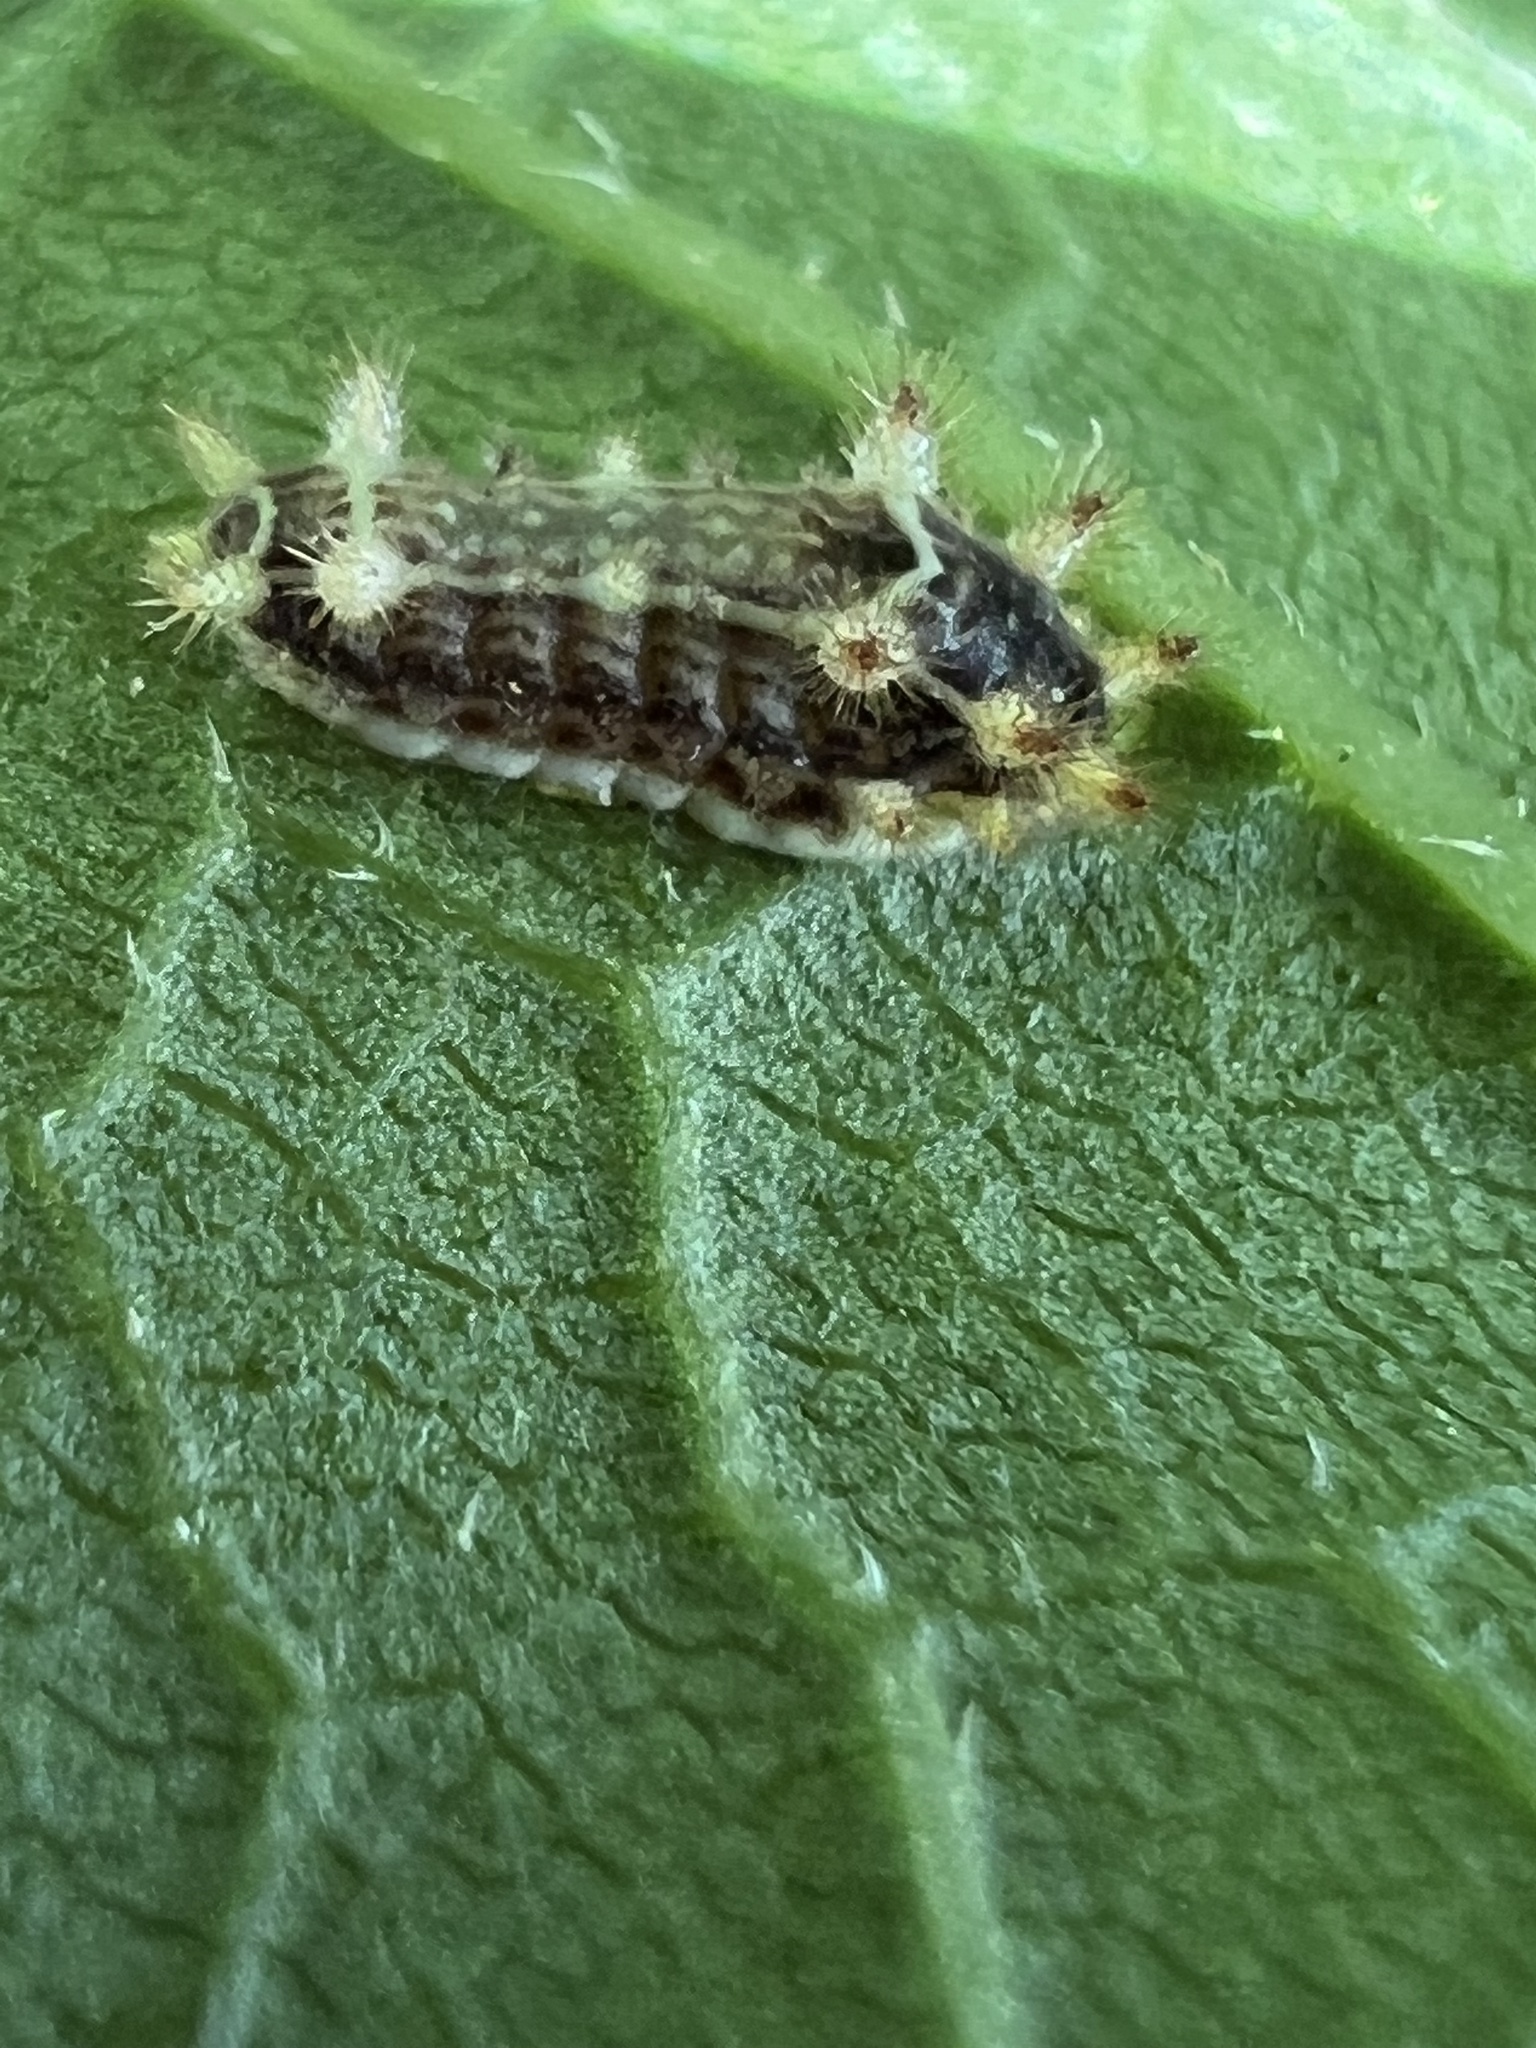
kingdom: Animalia
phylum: Arthropoda
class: Insecta
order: Lepidoptera
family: Limacodidae
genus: Parasa
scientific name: Parasa chloris
